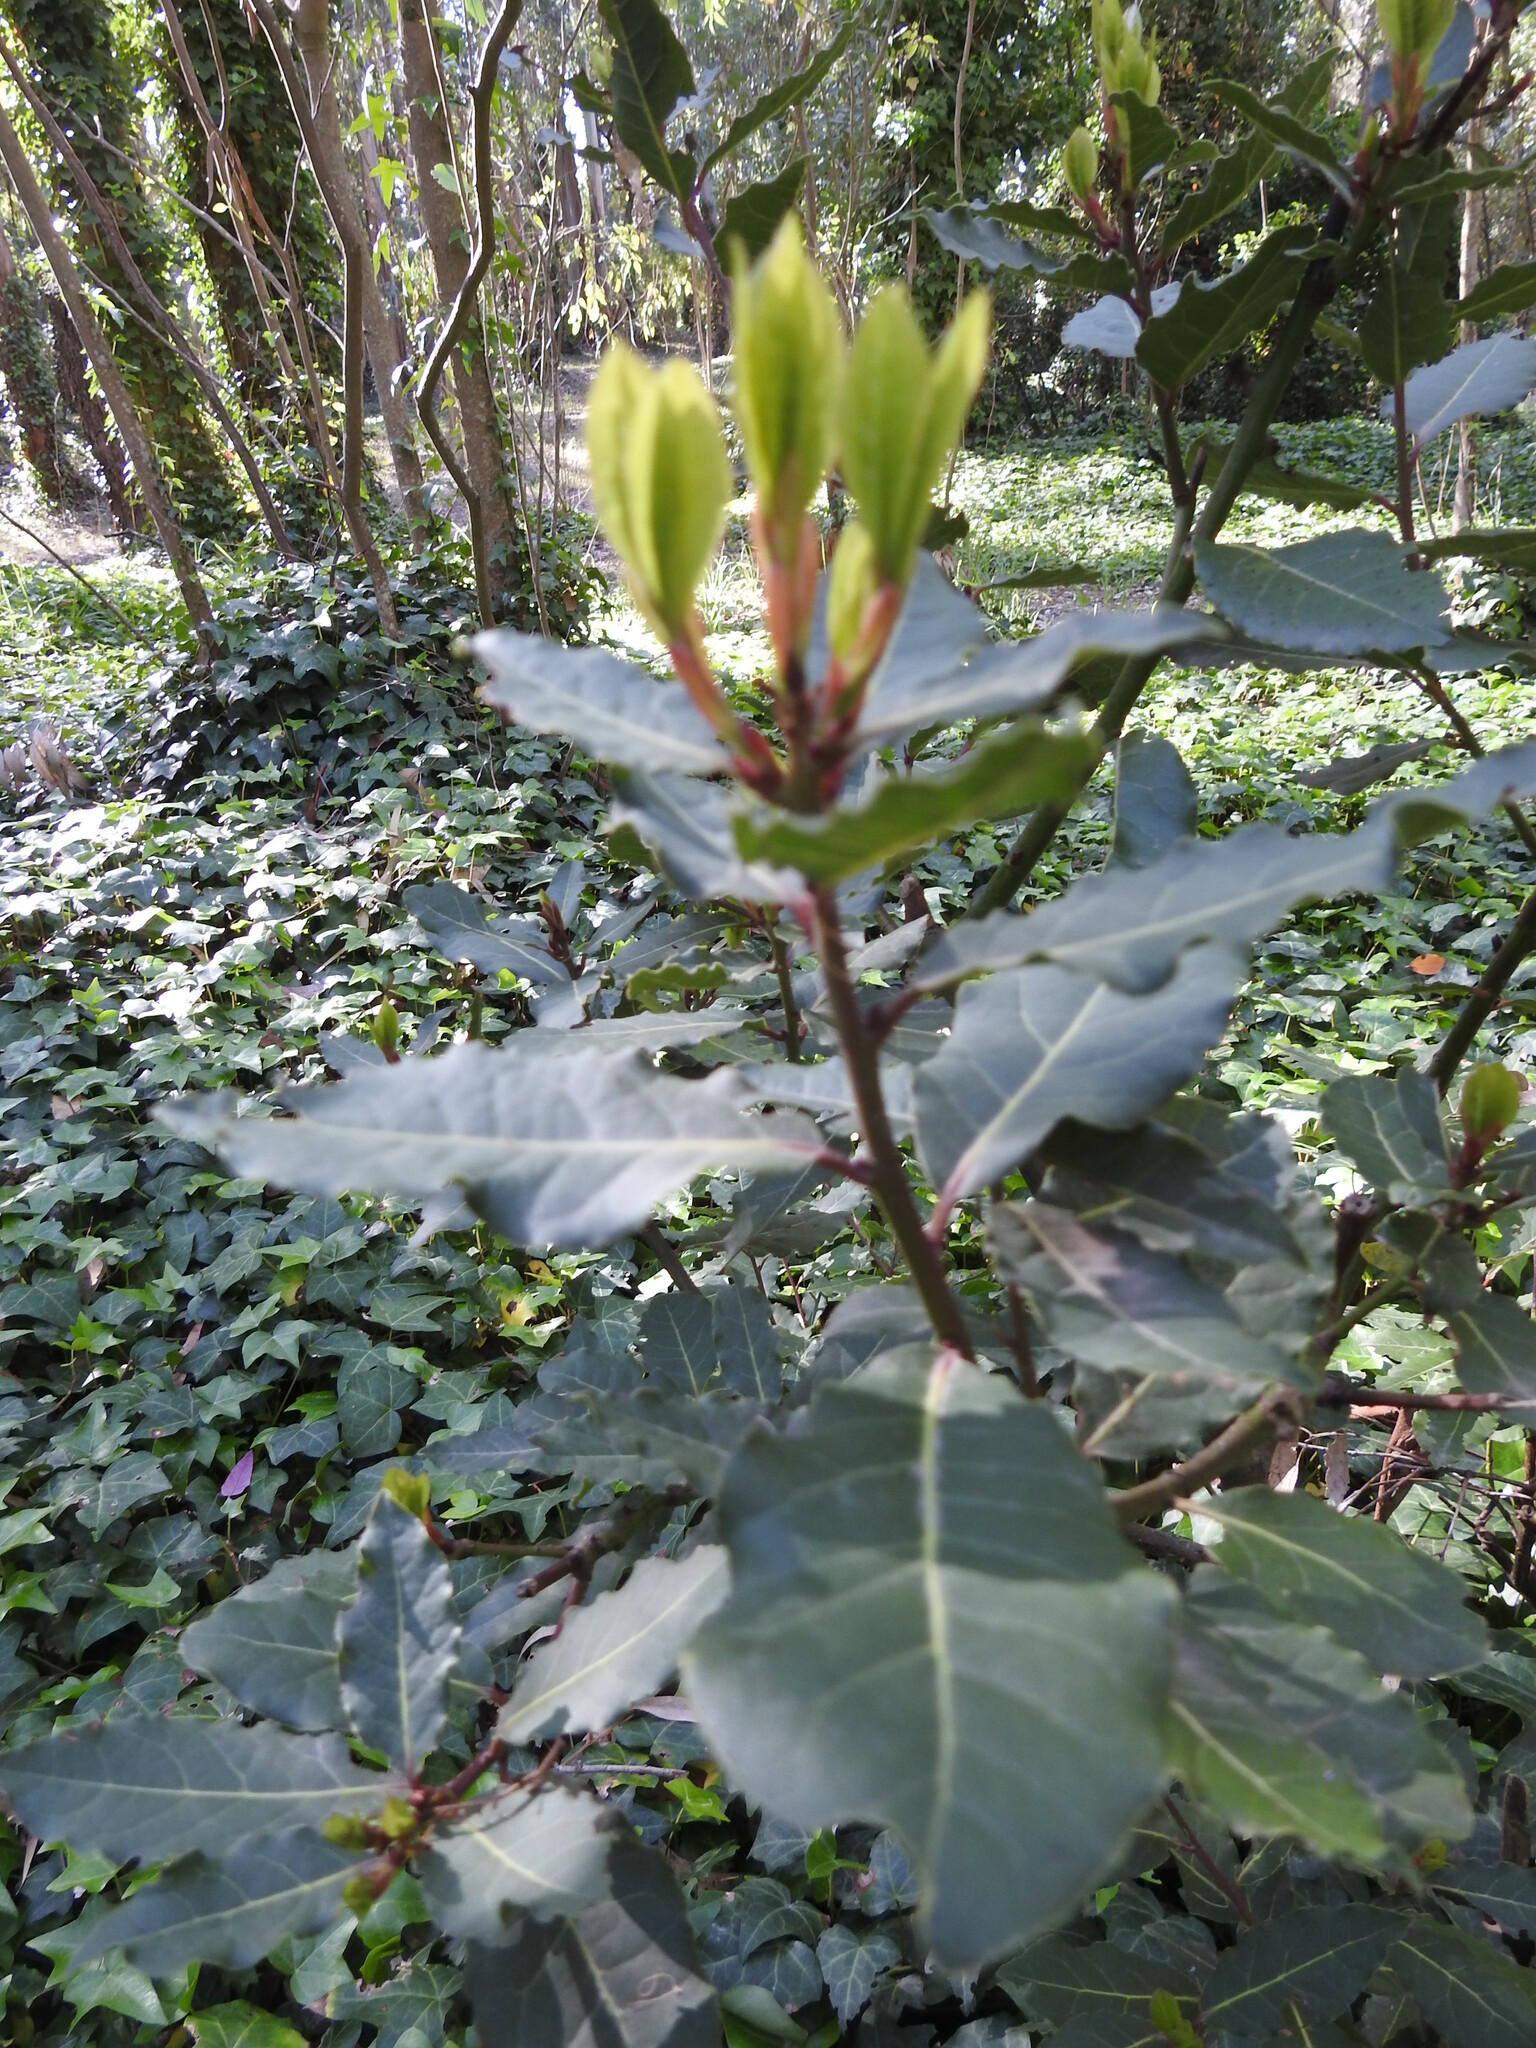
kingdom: Plantae
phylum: Tracheophyta
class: Magnoliopsida
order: Laurales
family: Lauraceae
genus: Laurus
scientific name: Laurus nobilis
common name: Bay
